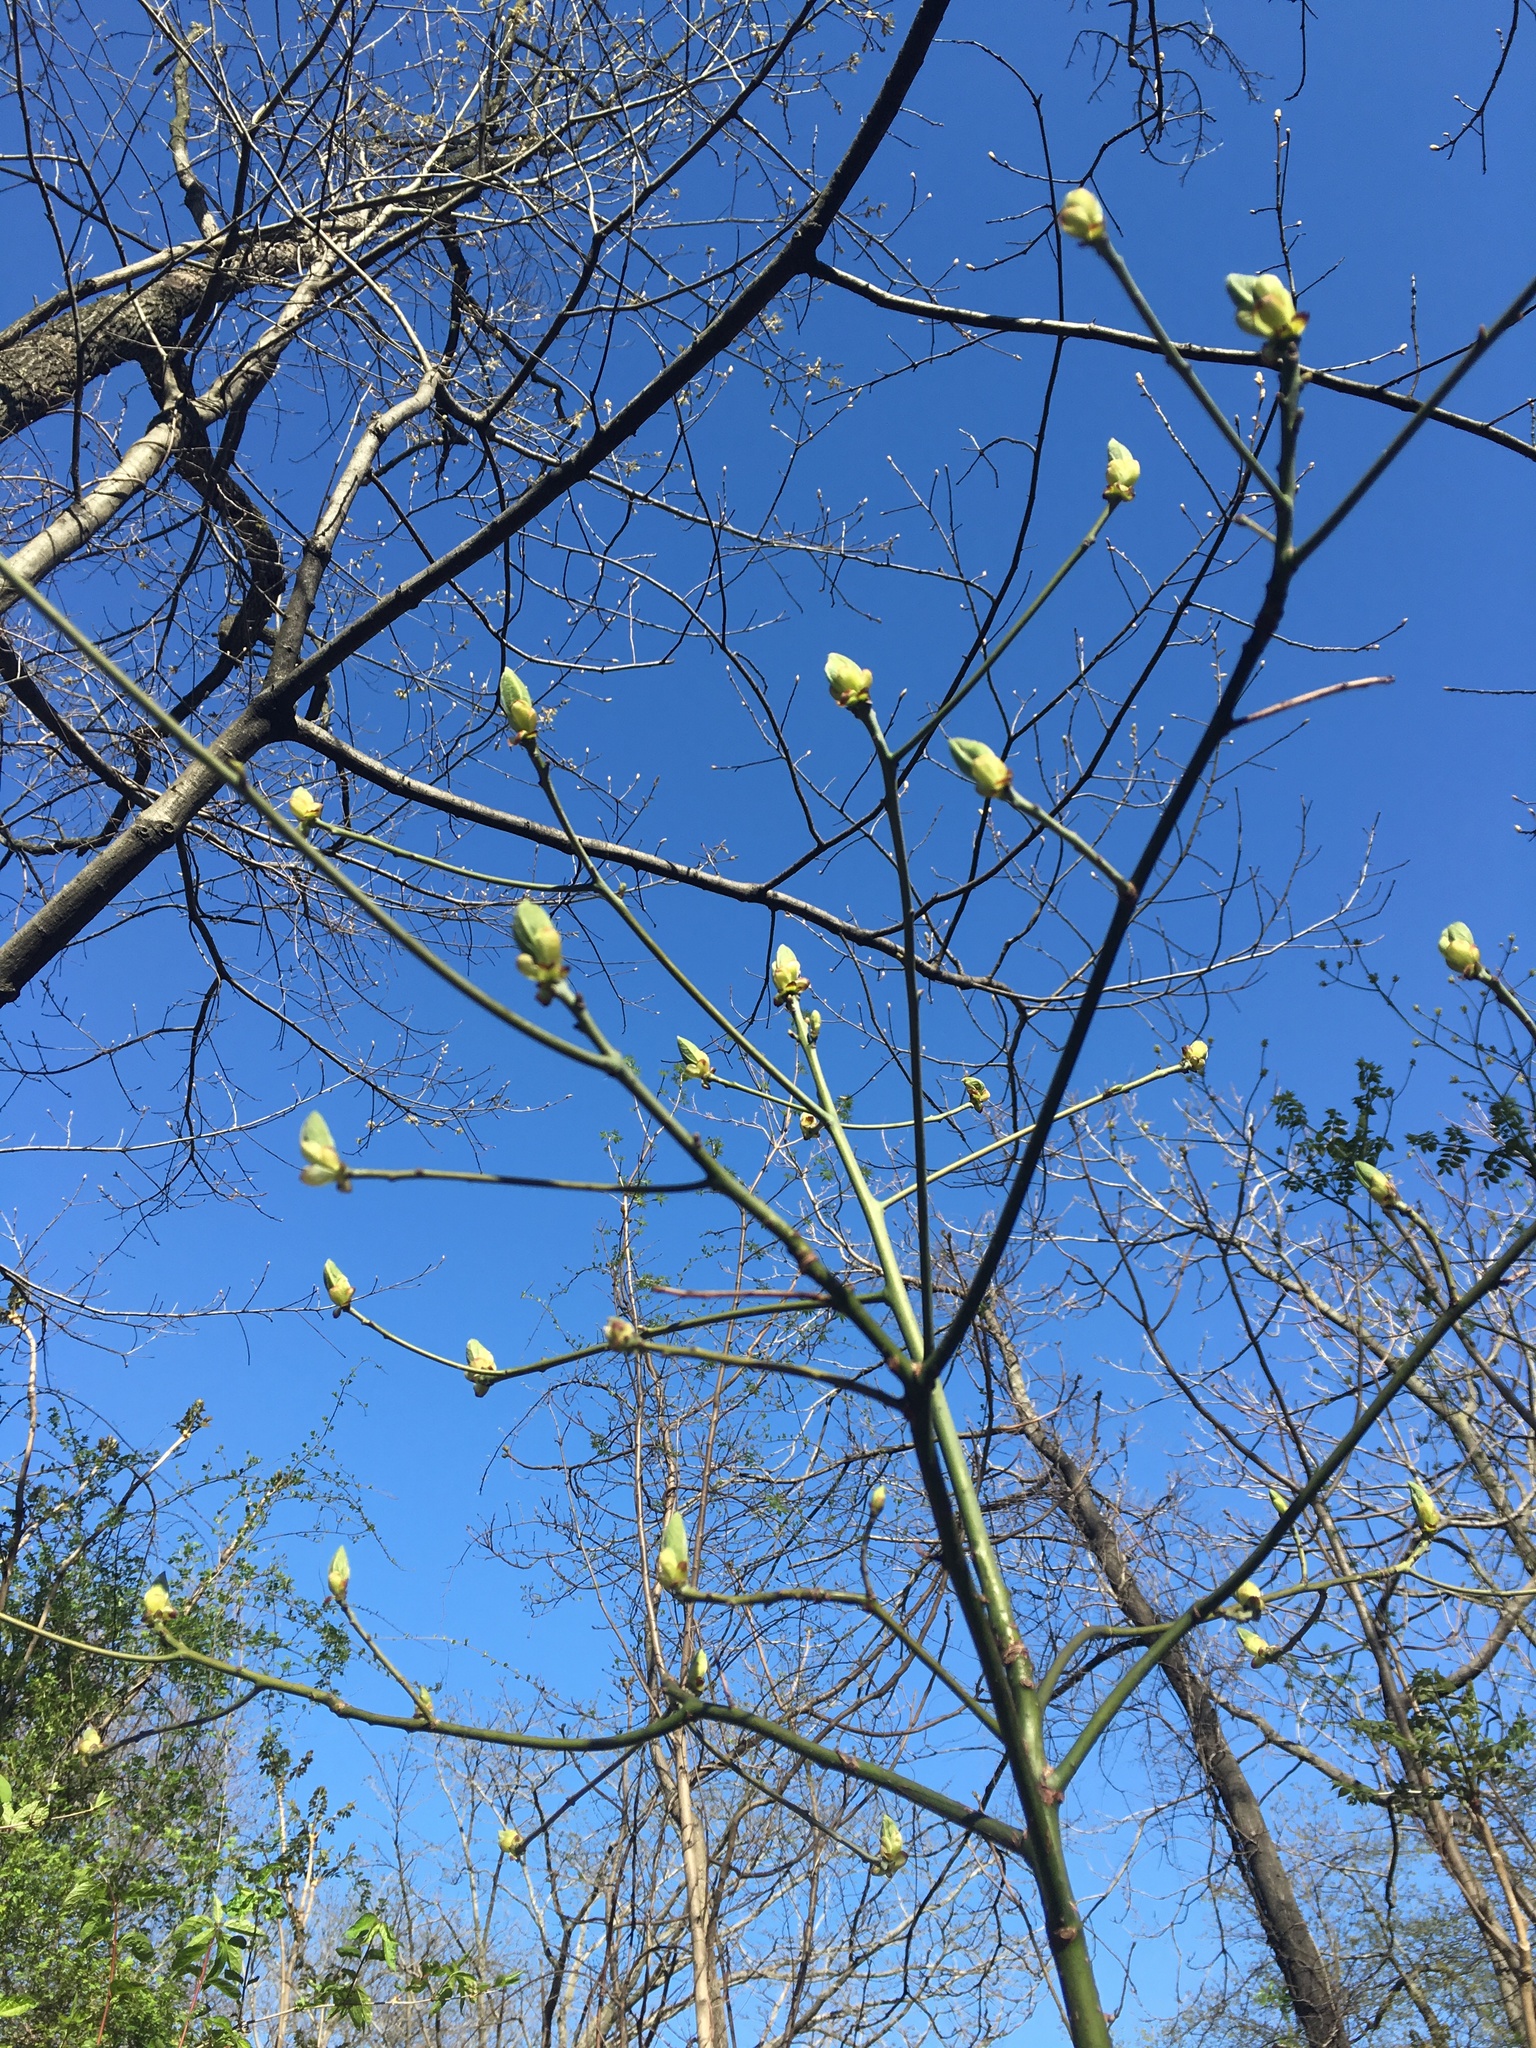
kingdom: Plantae
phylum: Tracheophyta
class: Magnoliopsida
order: Laurales
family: Lauraceae
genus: Sassafras
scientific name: Sassafras albidum
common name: Sassafras
